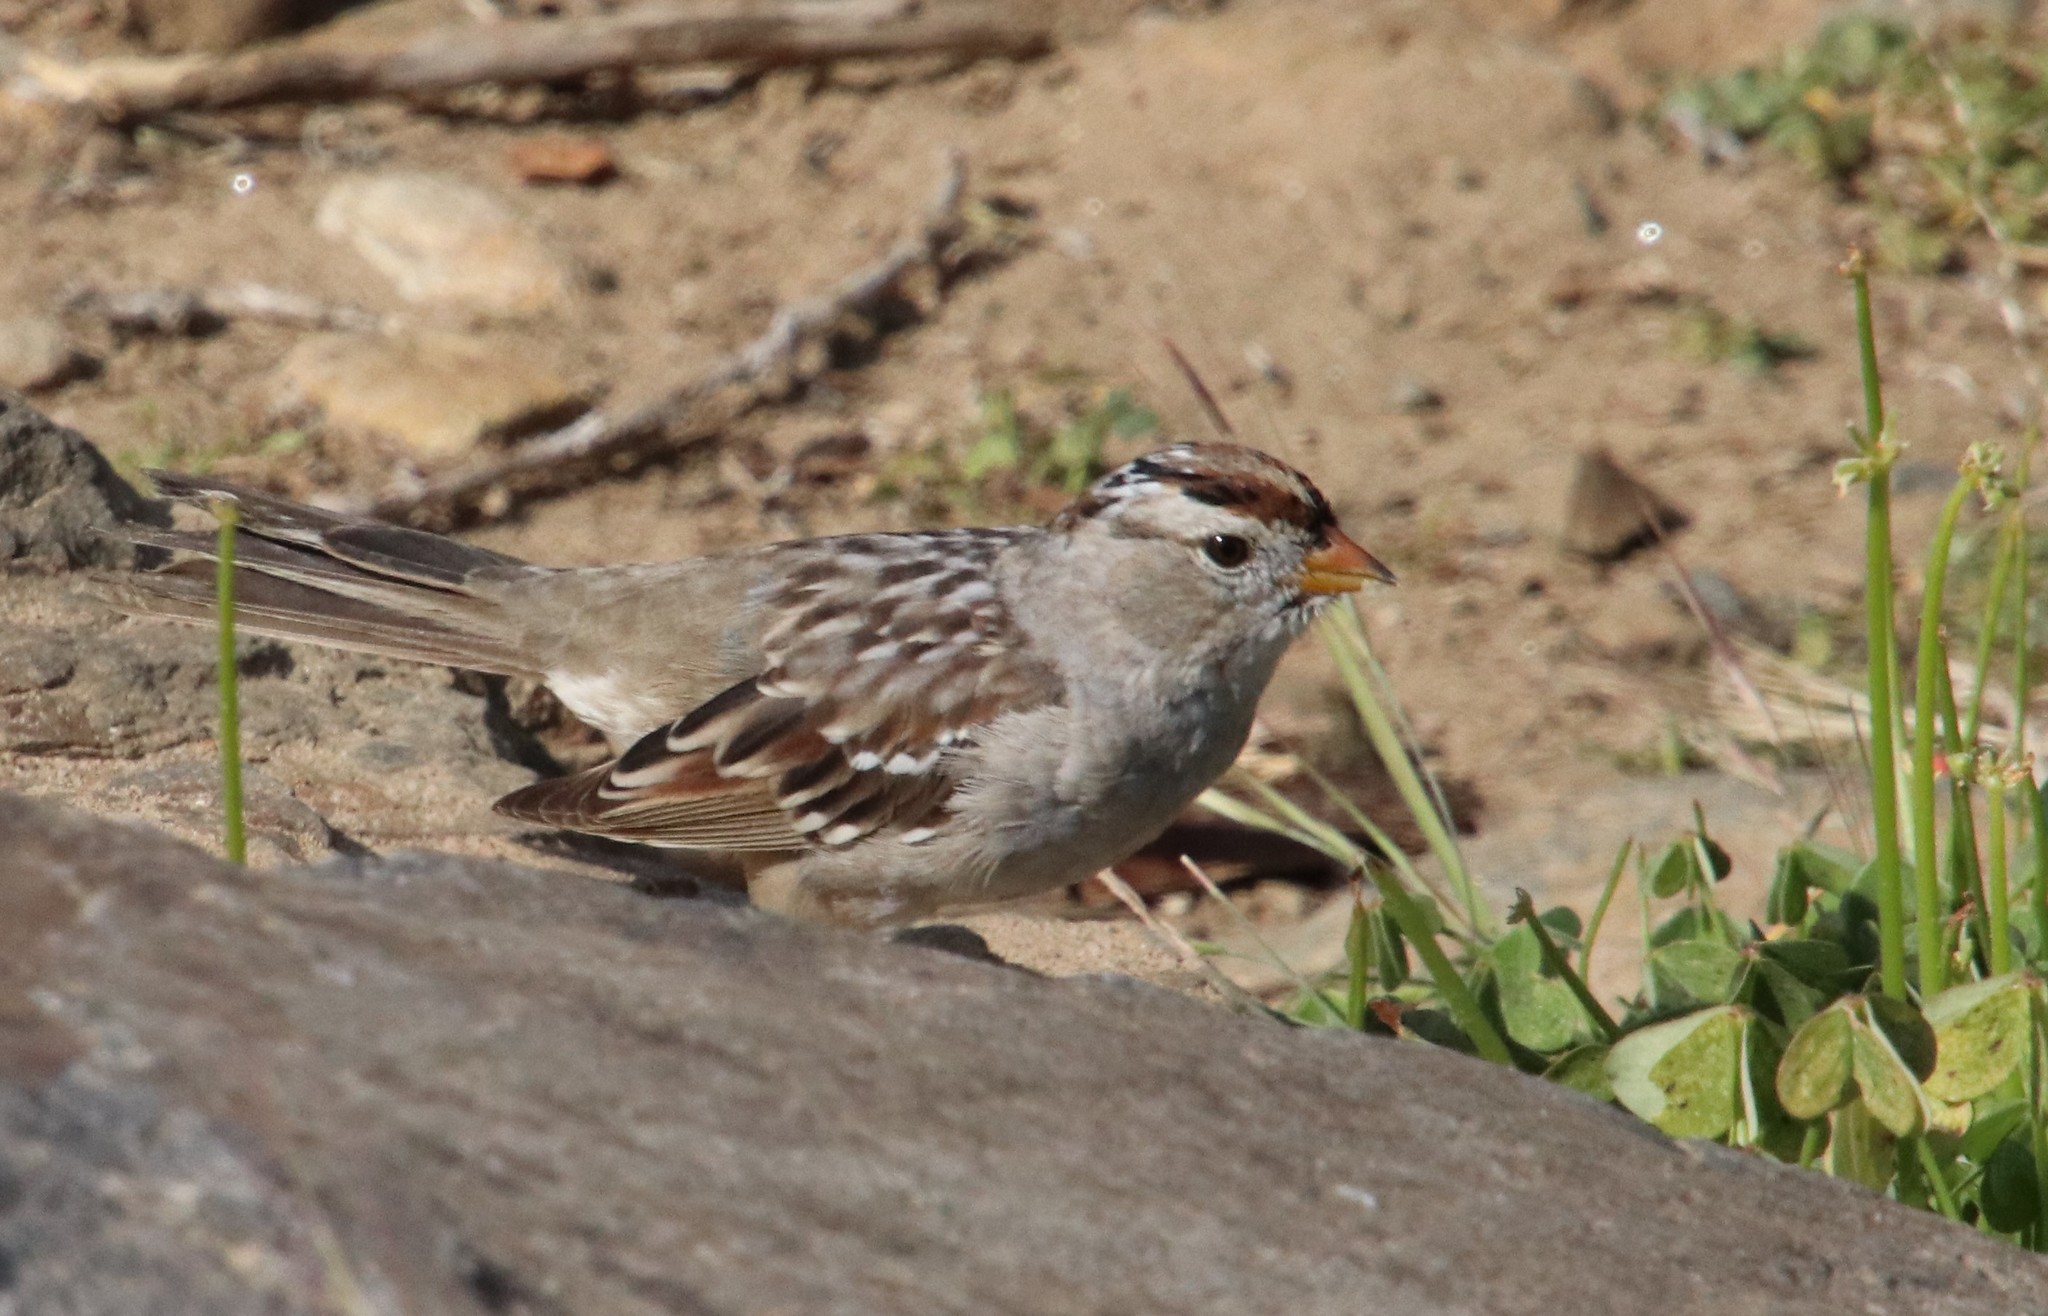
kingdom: Animalia
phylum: Chordata
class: Aves
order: Passeriformes
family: Passerellidae
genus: Zonotrichia
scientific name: Zonotrichia leucophrys
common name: White-crowned sparrow
